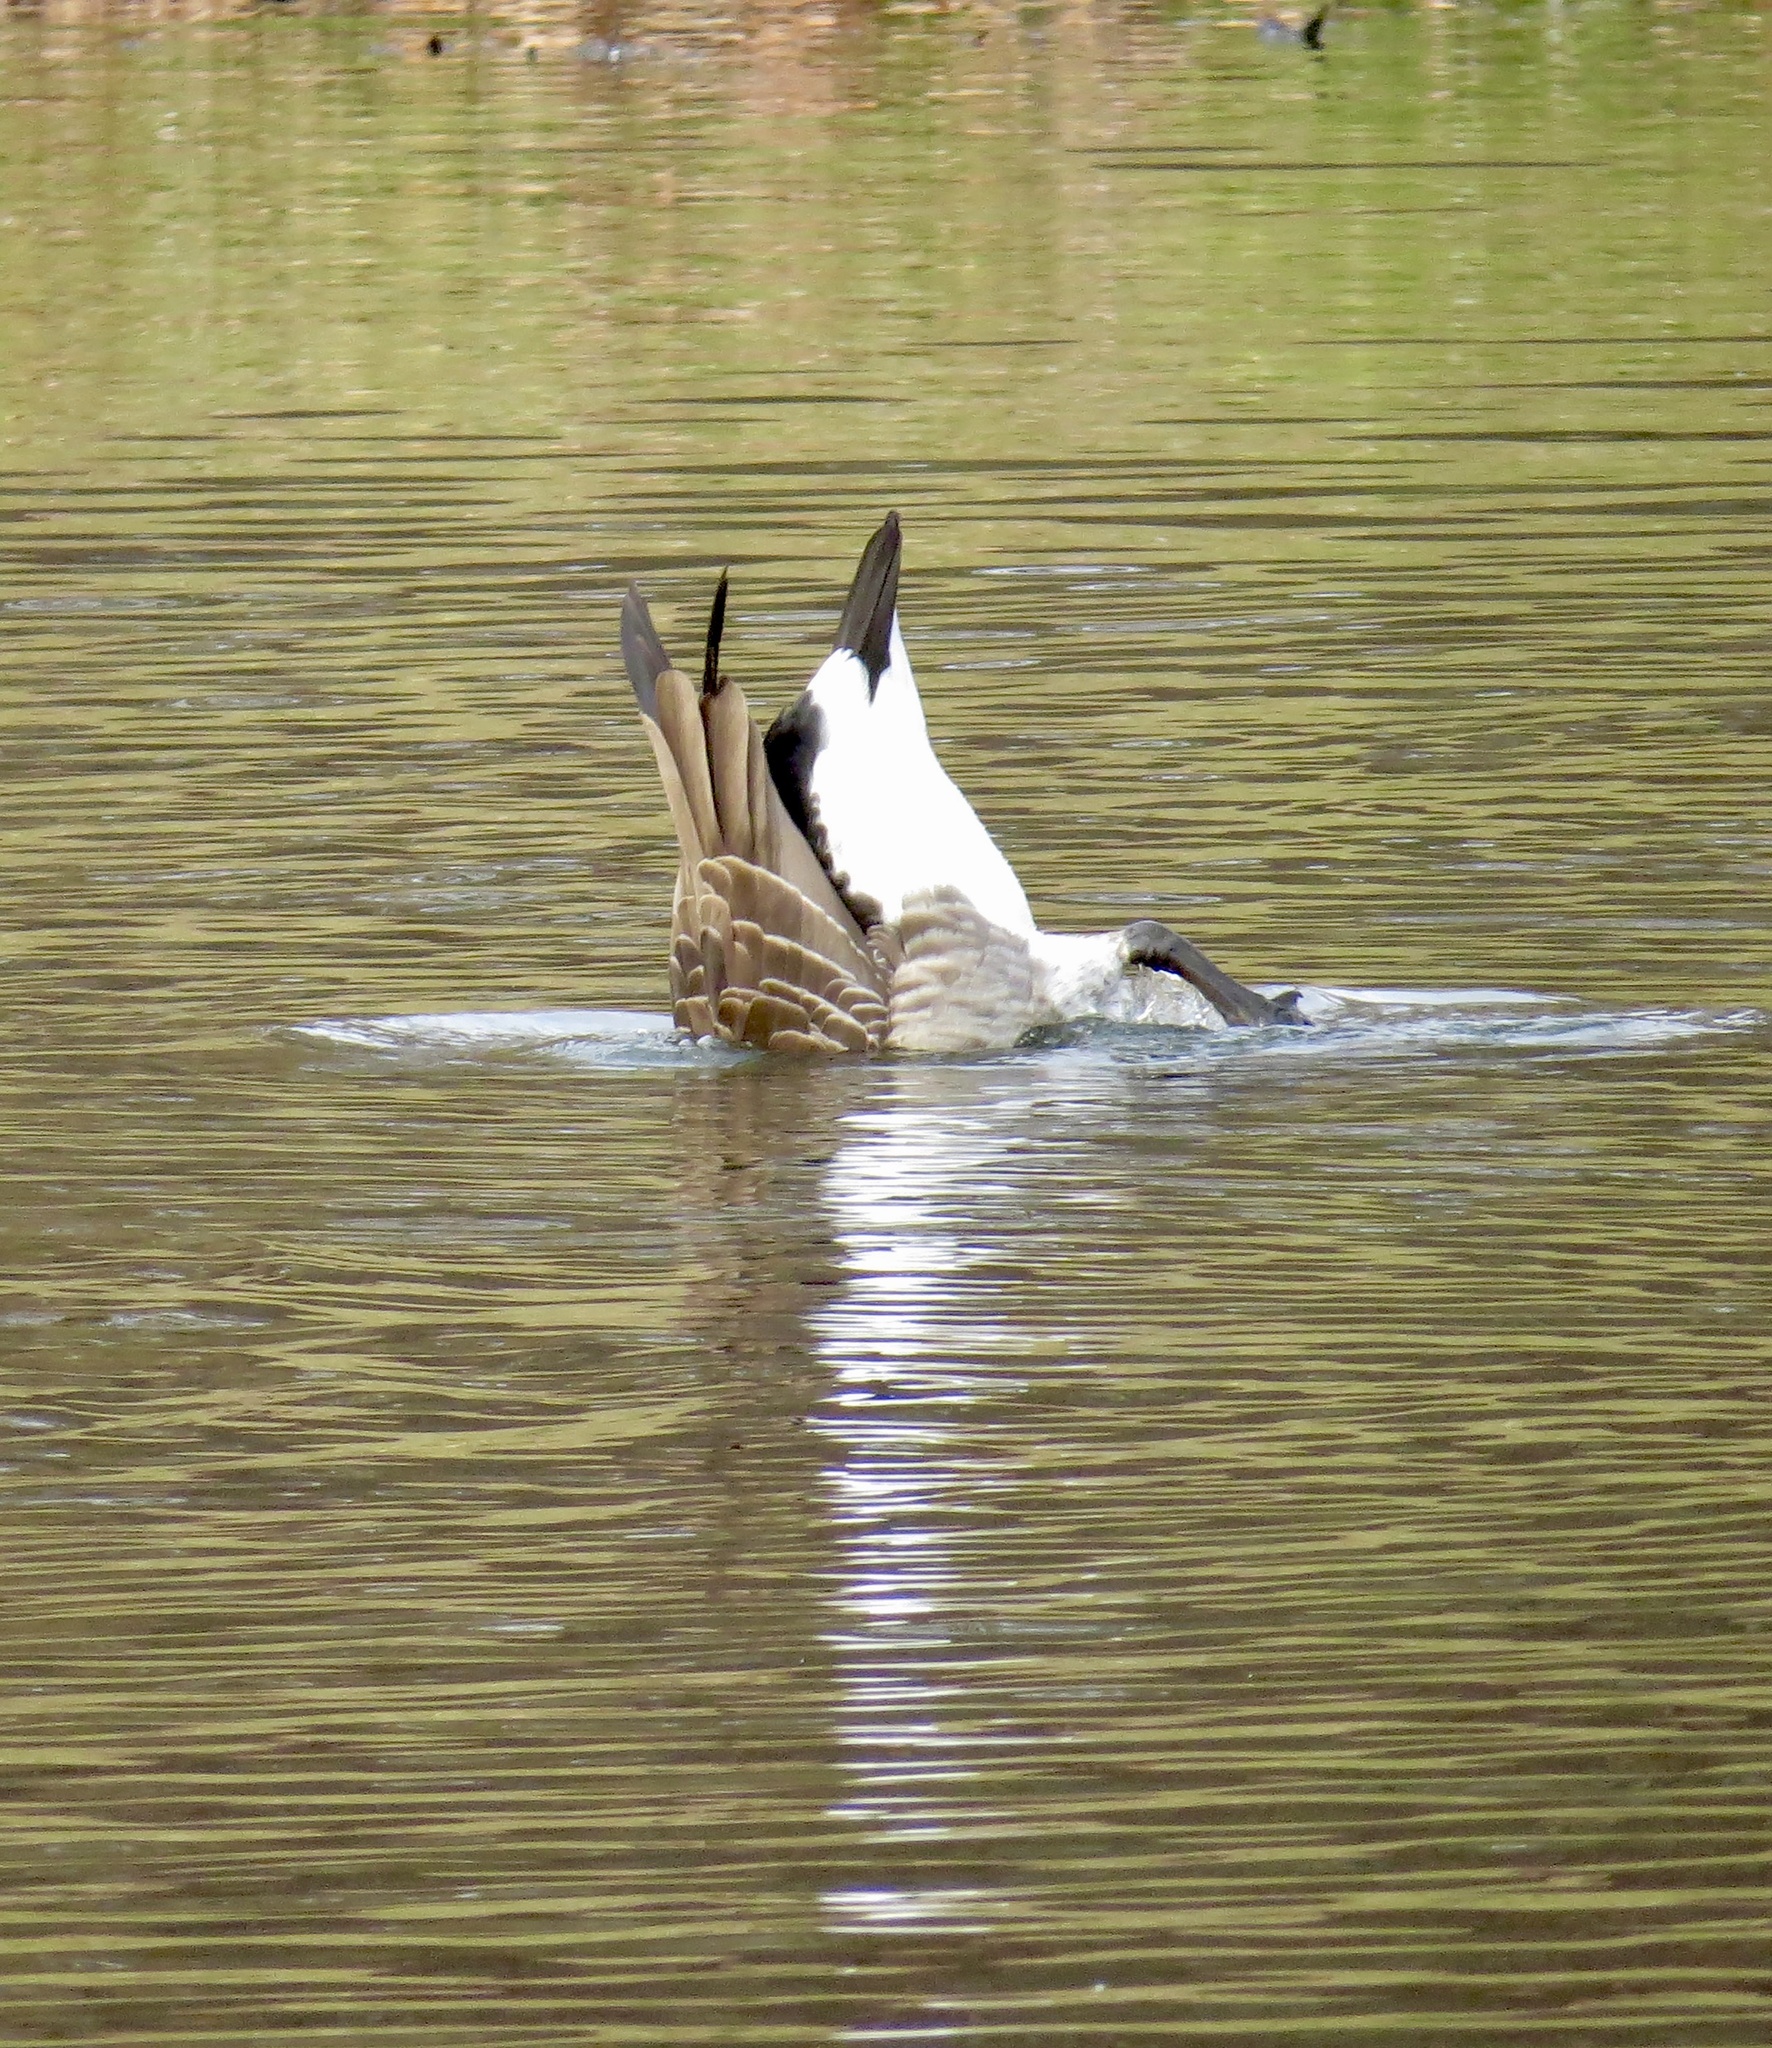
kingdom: Animalia
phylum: Chordata
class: Aves
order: Anseriformes
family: Anatidae
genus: Branta
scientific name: Branta canadensis
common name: Canada goose
